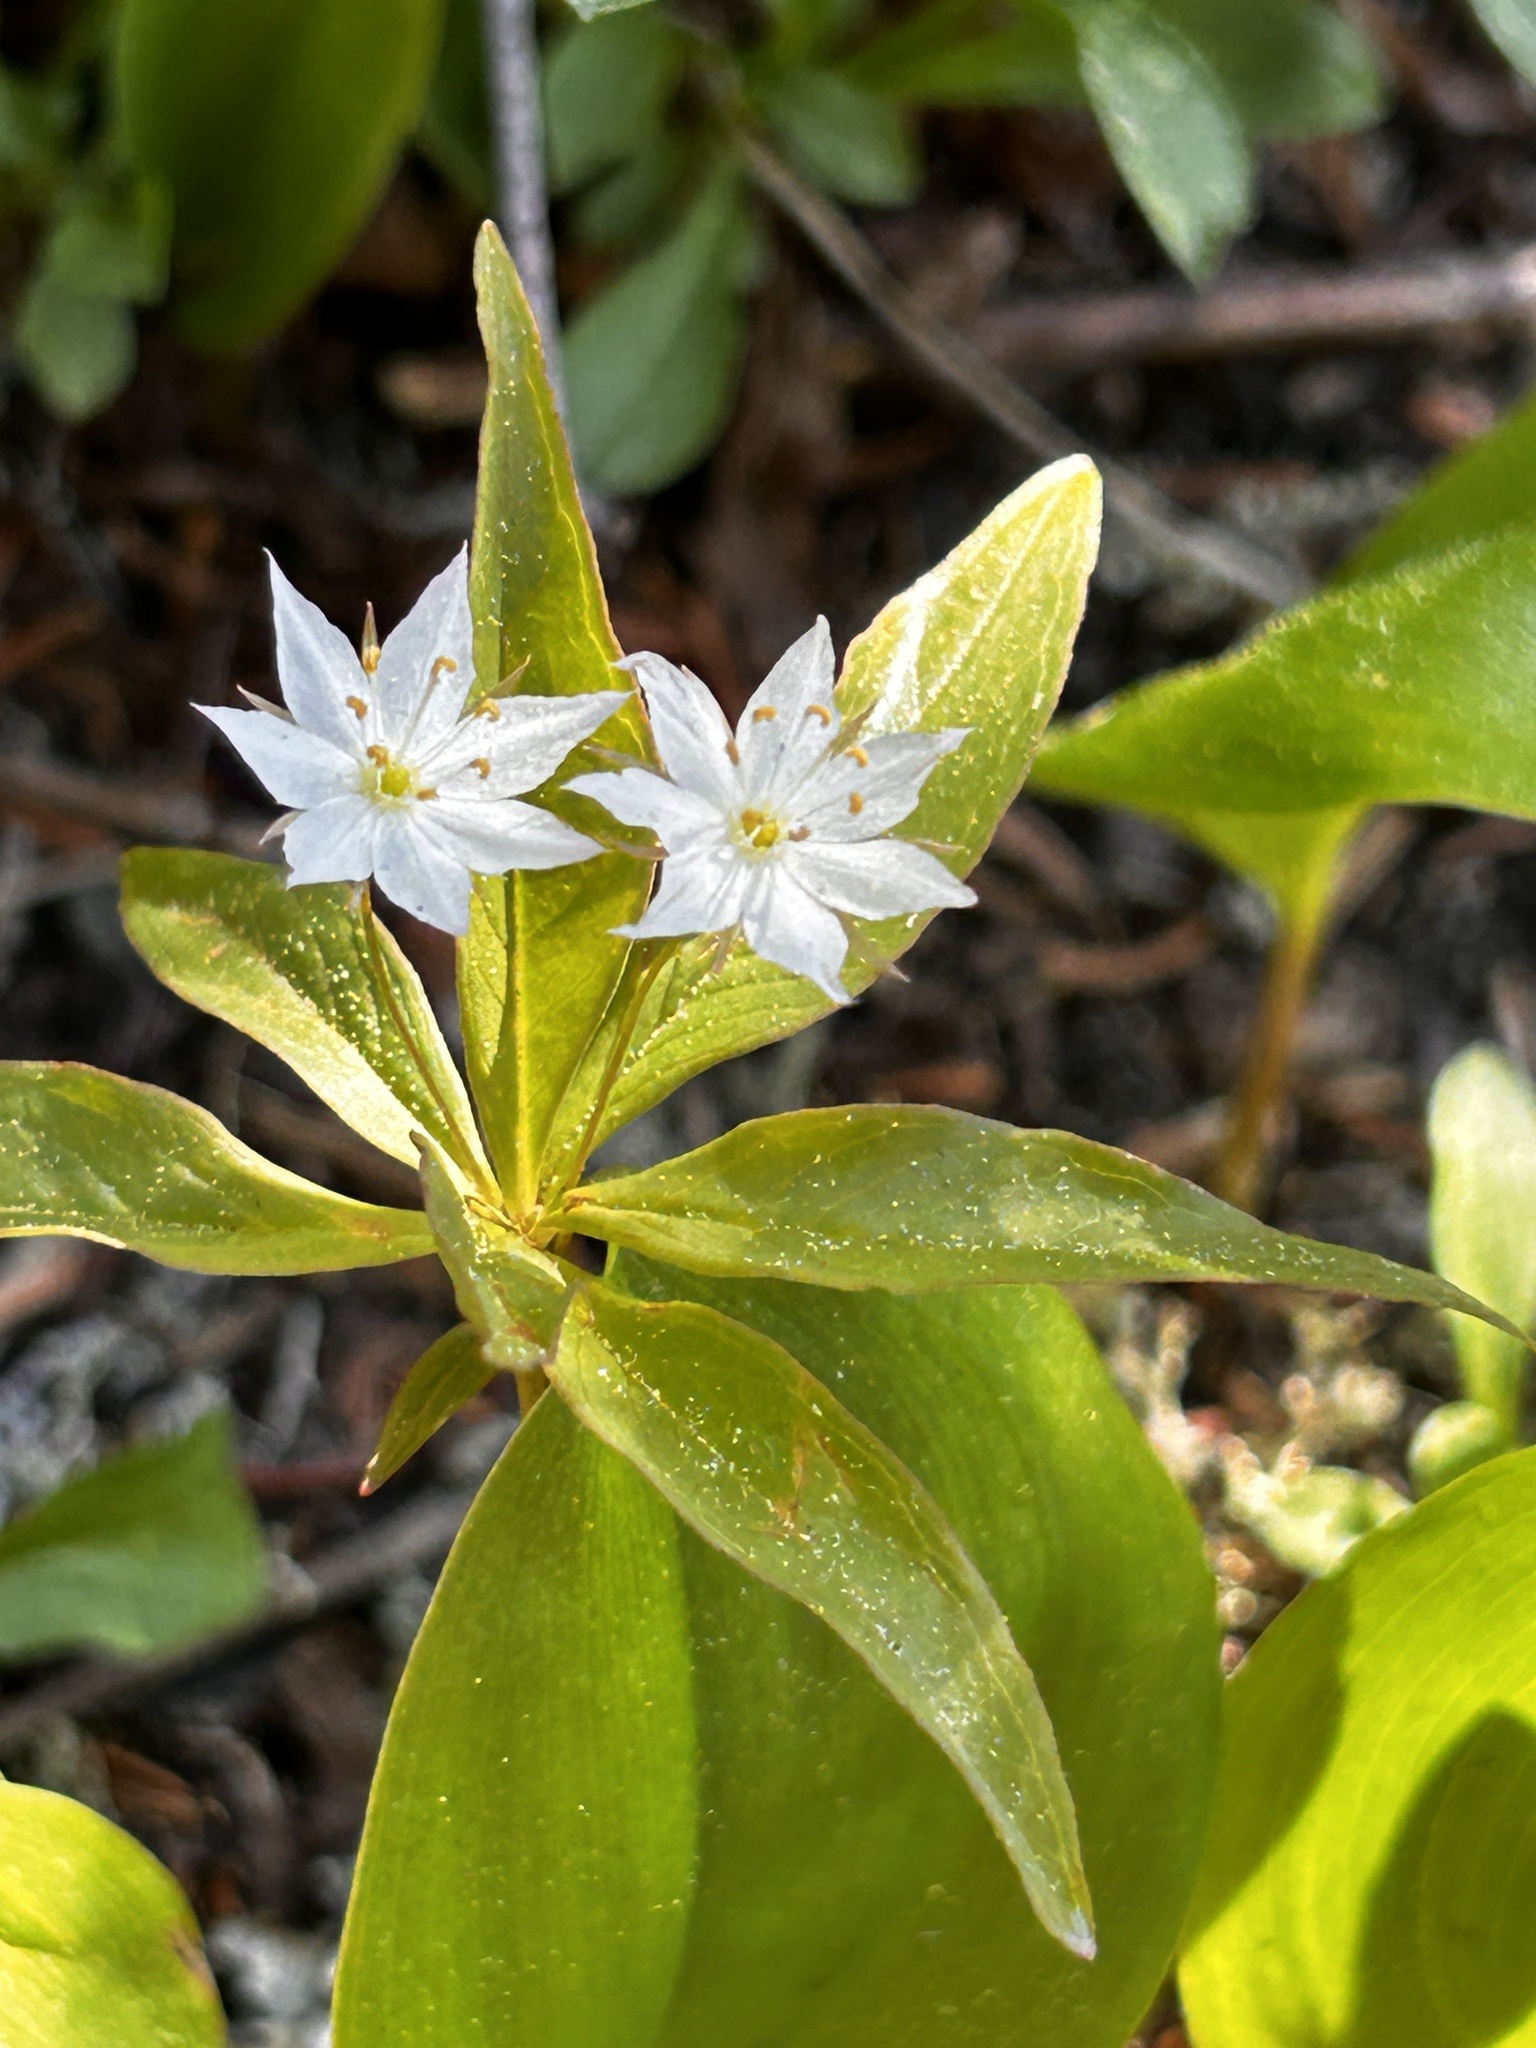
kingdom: Plantae
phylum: Tracheophyta
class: Magnoliopsida
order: Ericales
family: Primulaceae
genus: Lysimachia
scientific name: Lysimachia borealis
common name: American starflower
